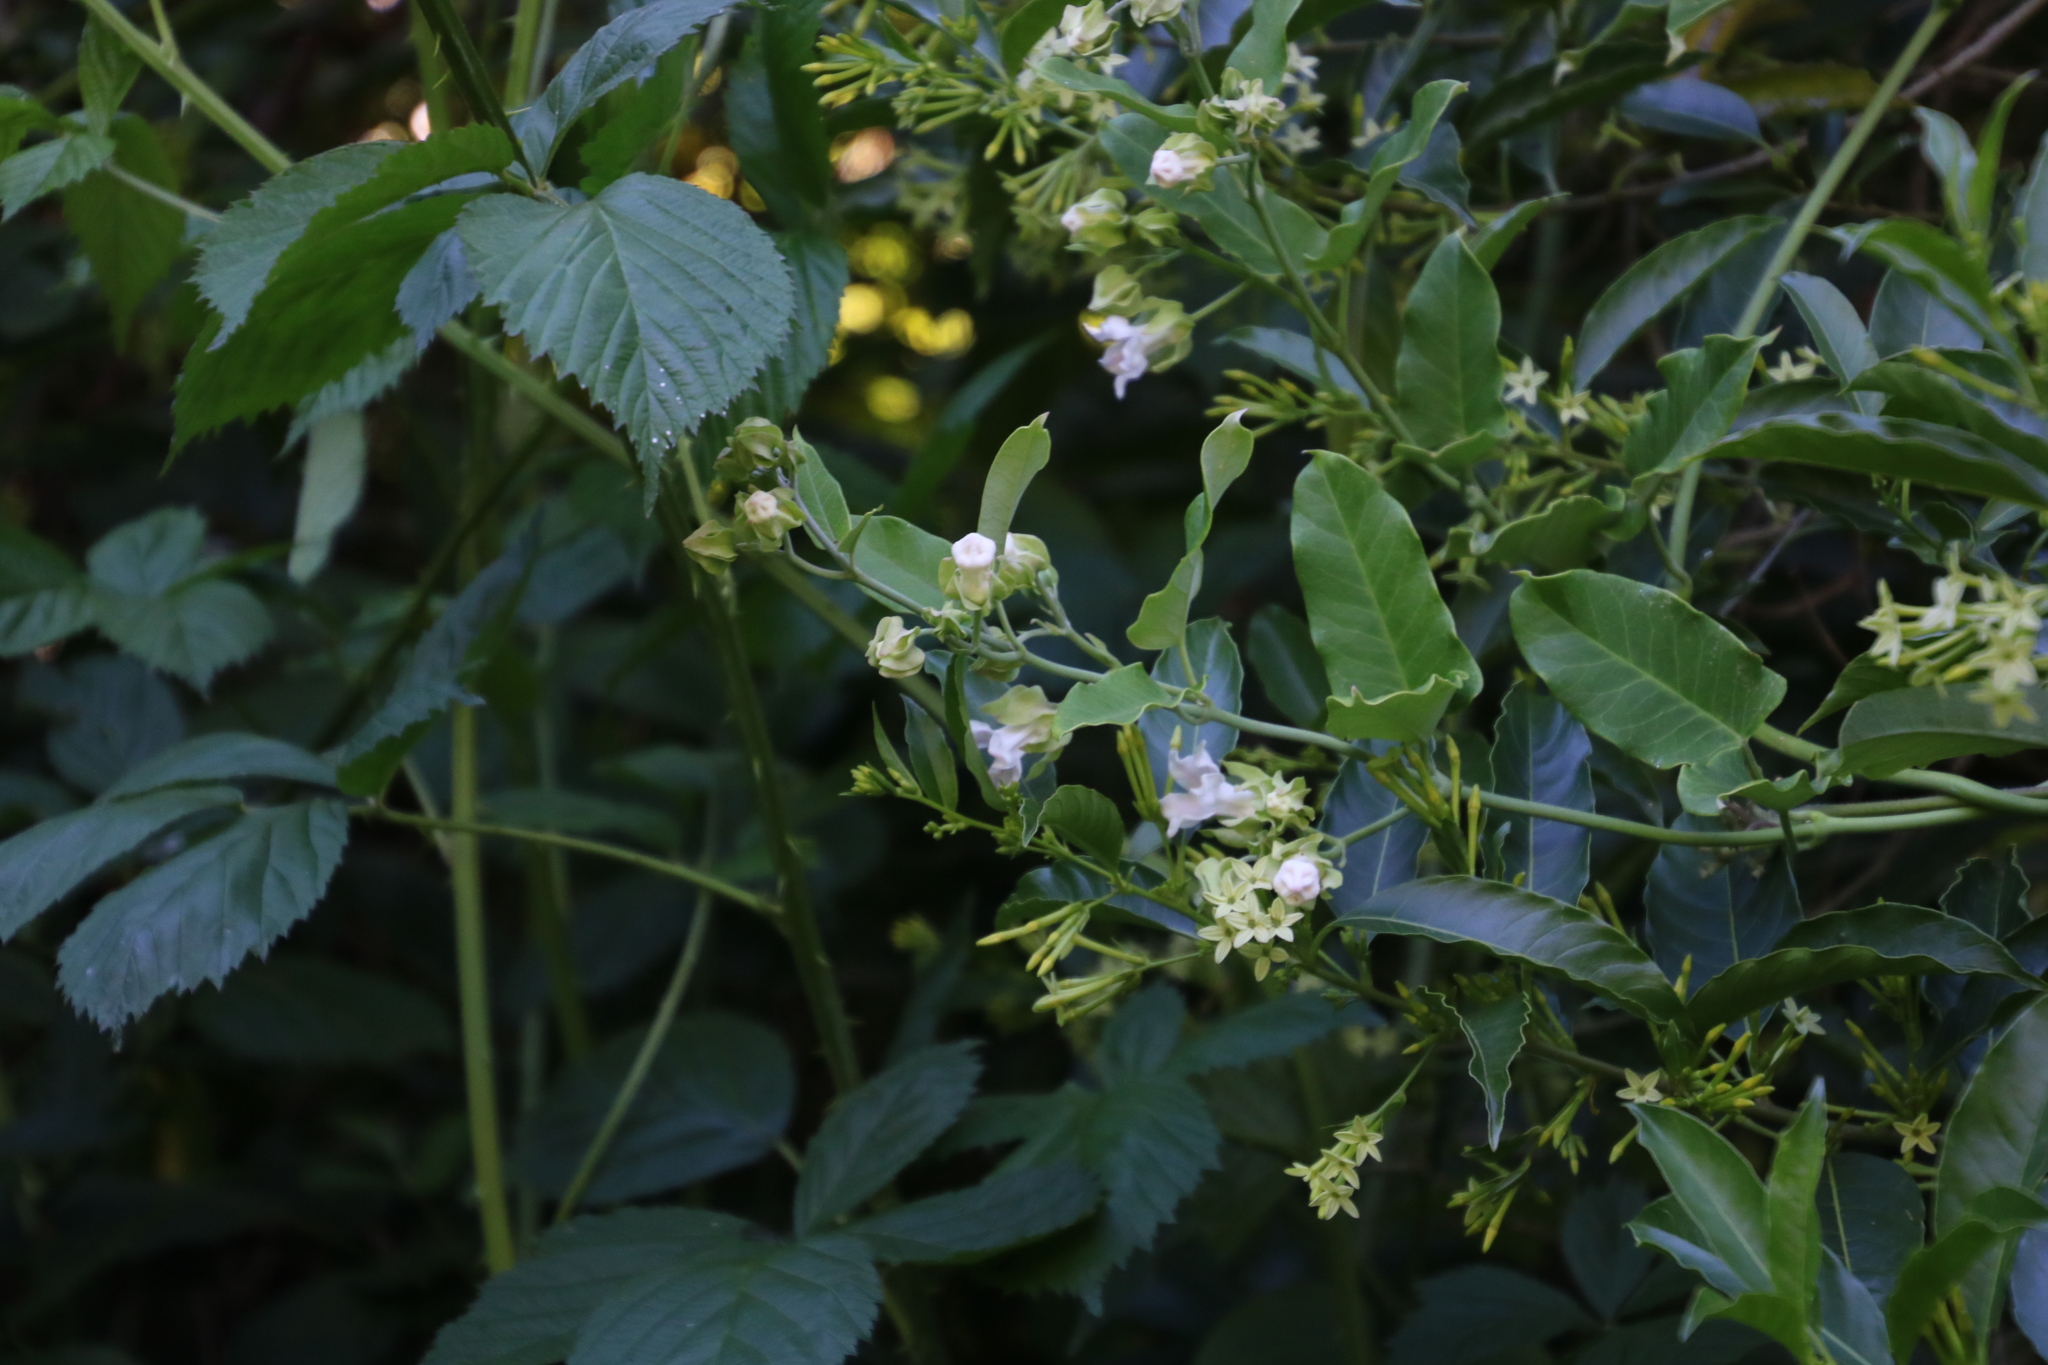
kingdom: Plantae
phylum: Tracheophyta
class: Magnoliopsida
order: Gentianales
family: Apocynaceae
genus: Araujia
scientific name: Araujia sericifera
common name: White bladderflower
